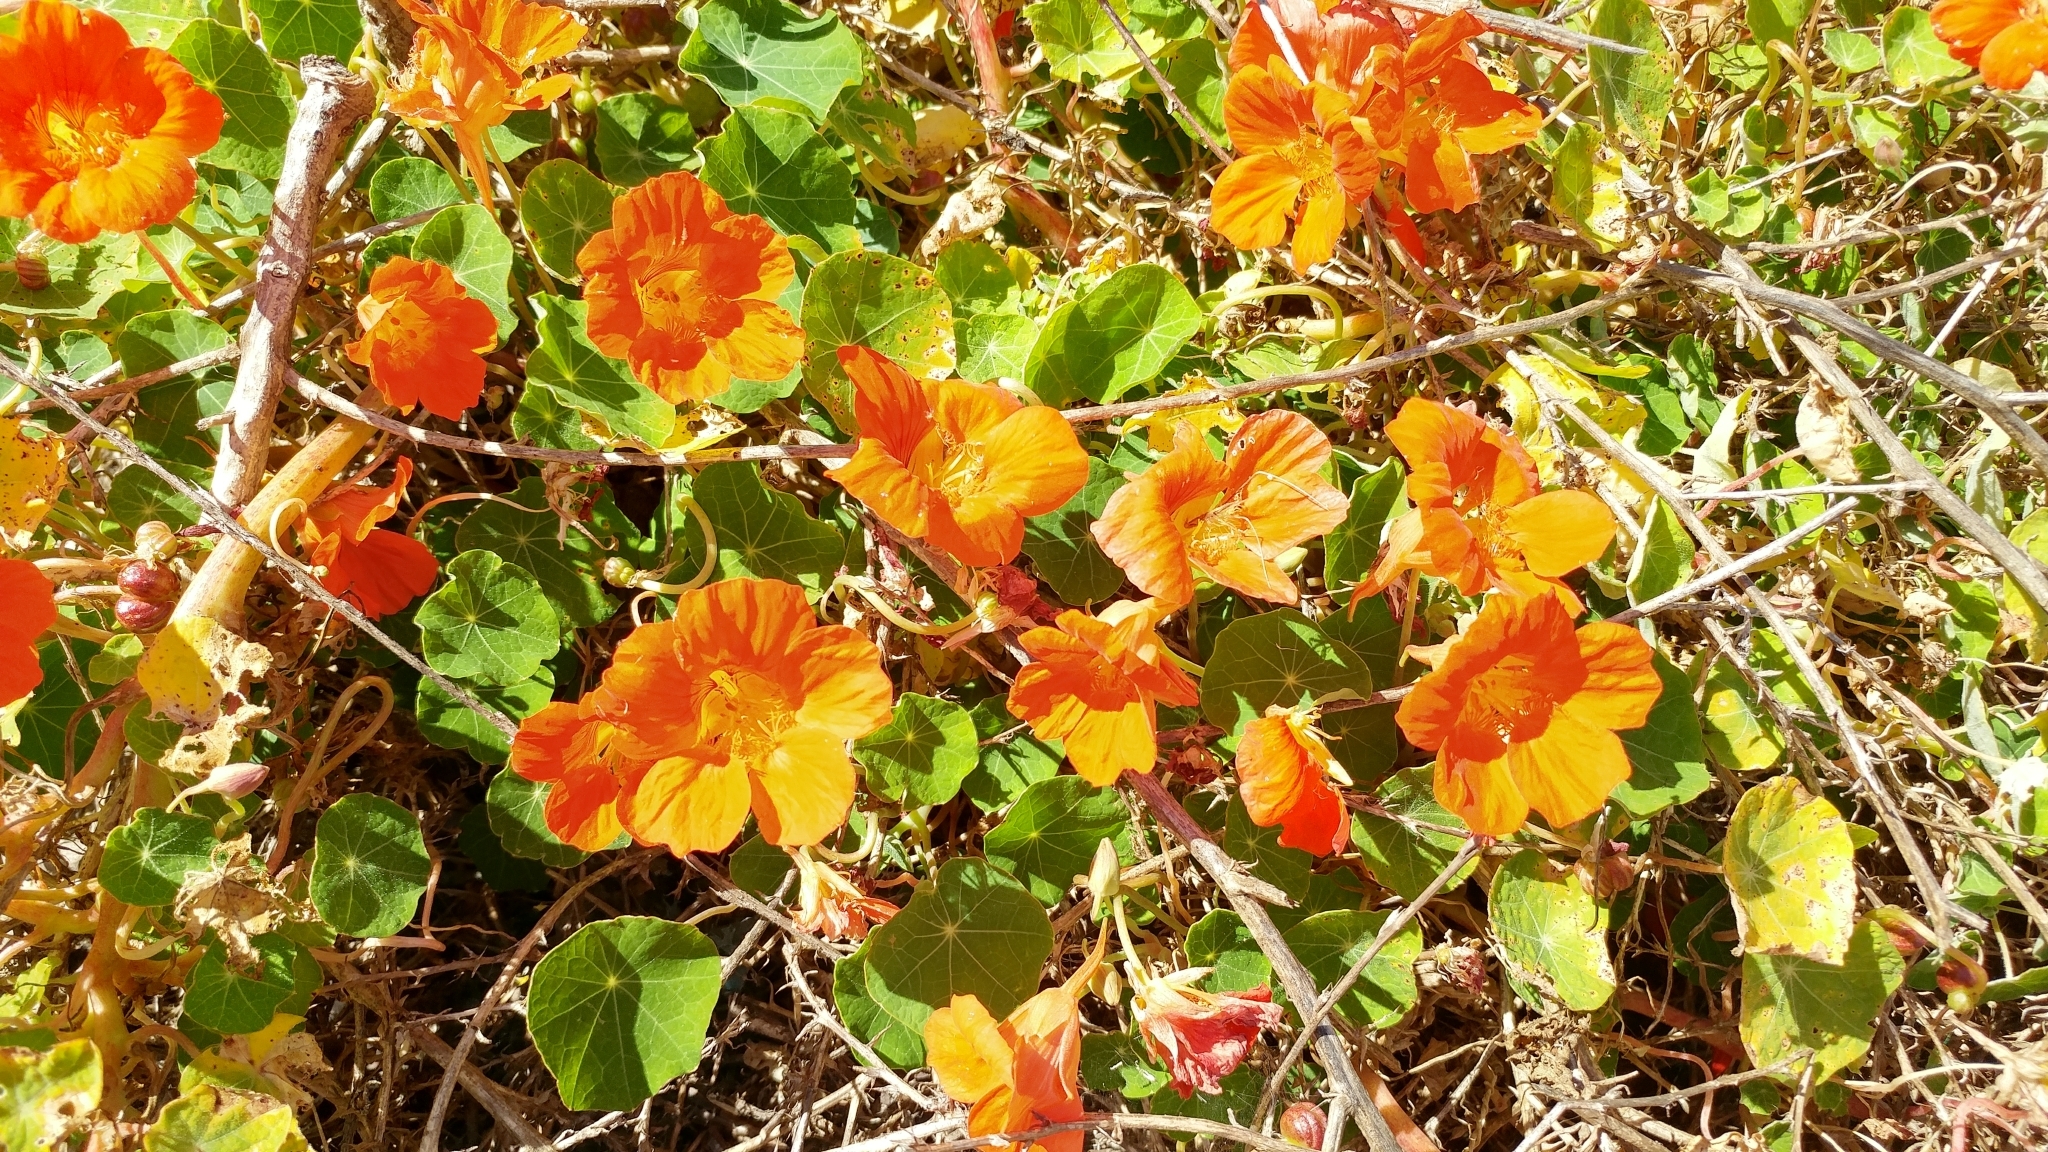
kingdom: Plantae
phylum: Tracheophyta
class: Magnoliopsida
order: Brassicales
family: Tropaeolaceae
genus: Tropaeolum
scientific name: Tropaeolum majus
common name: Nasturtium
